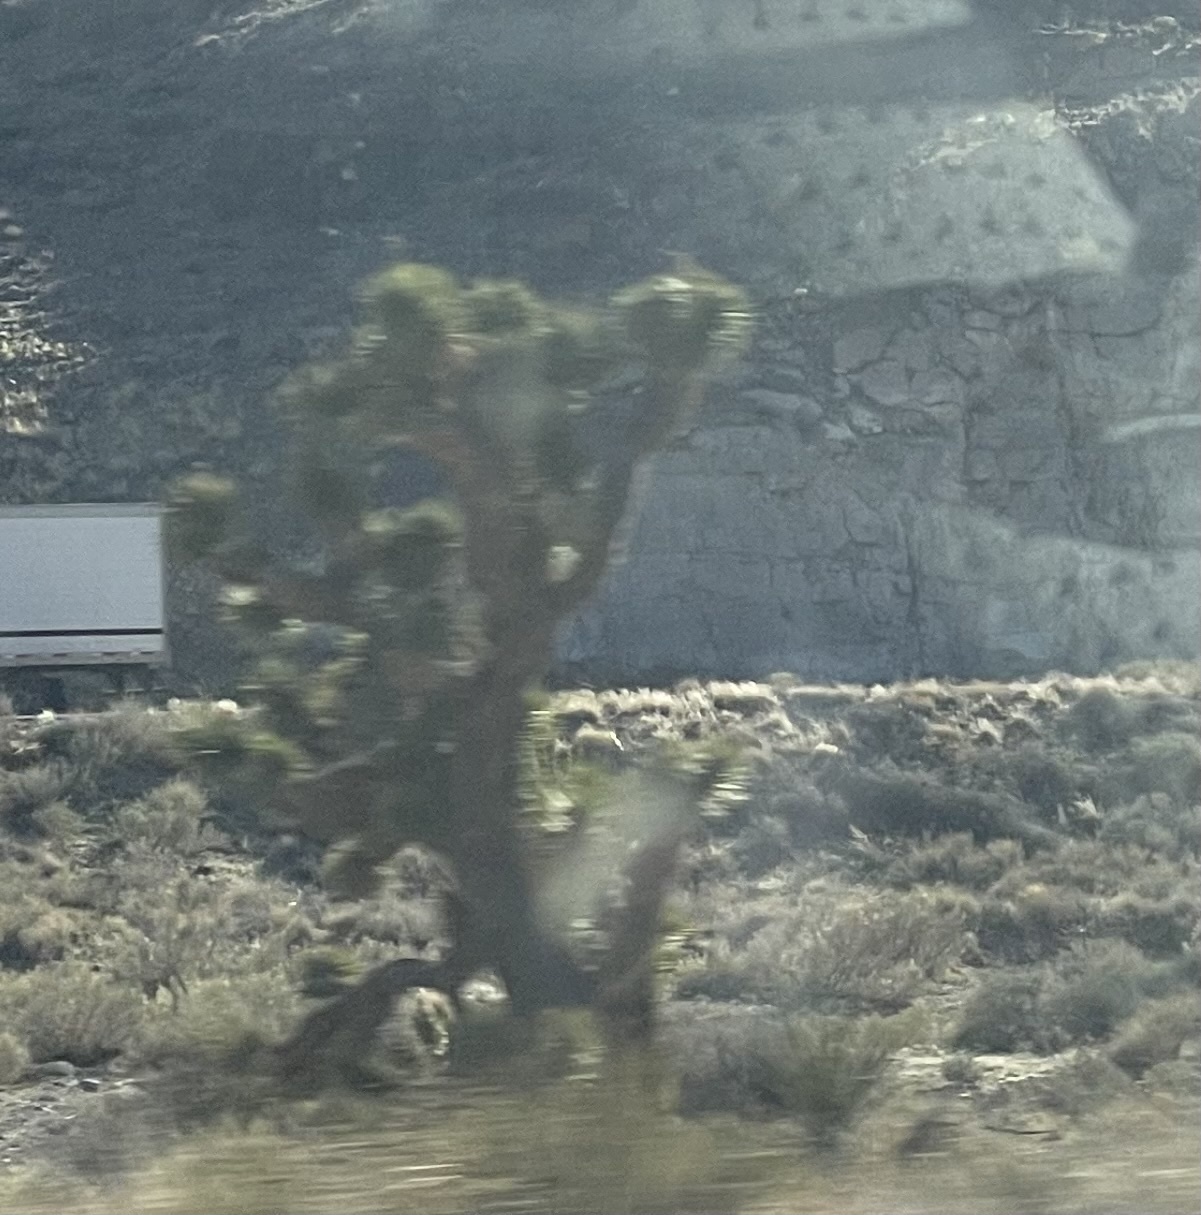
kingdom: Plantae
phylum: Tracheophyta
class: Liliopsida
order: Asparagales
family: Asparagaceae
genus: Yucca
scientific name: Yucca brevifolia
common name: Joshua tree
